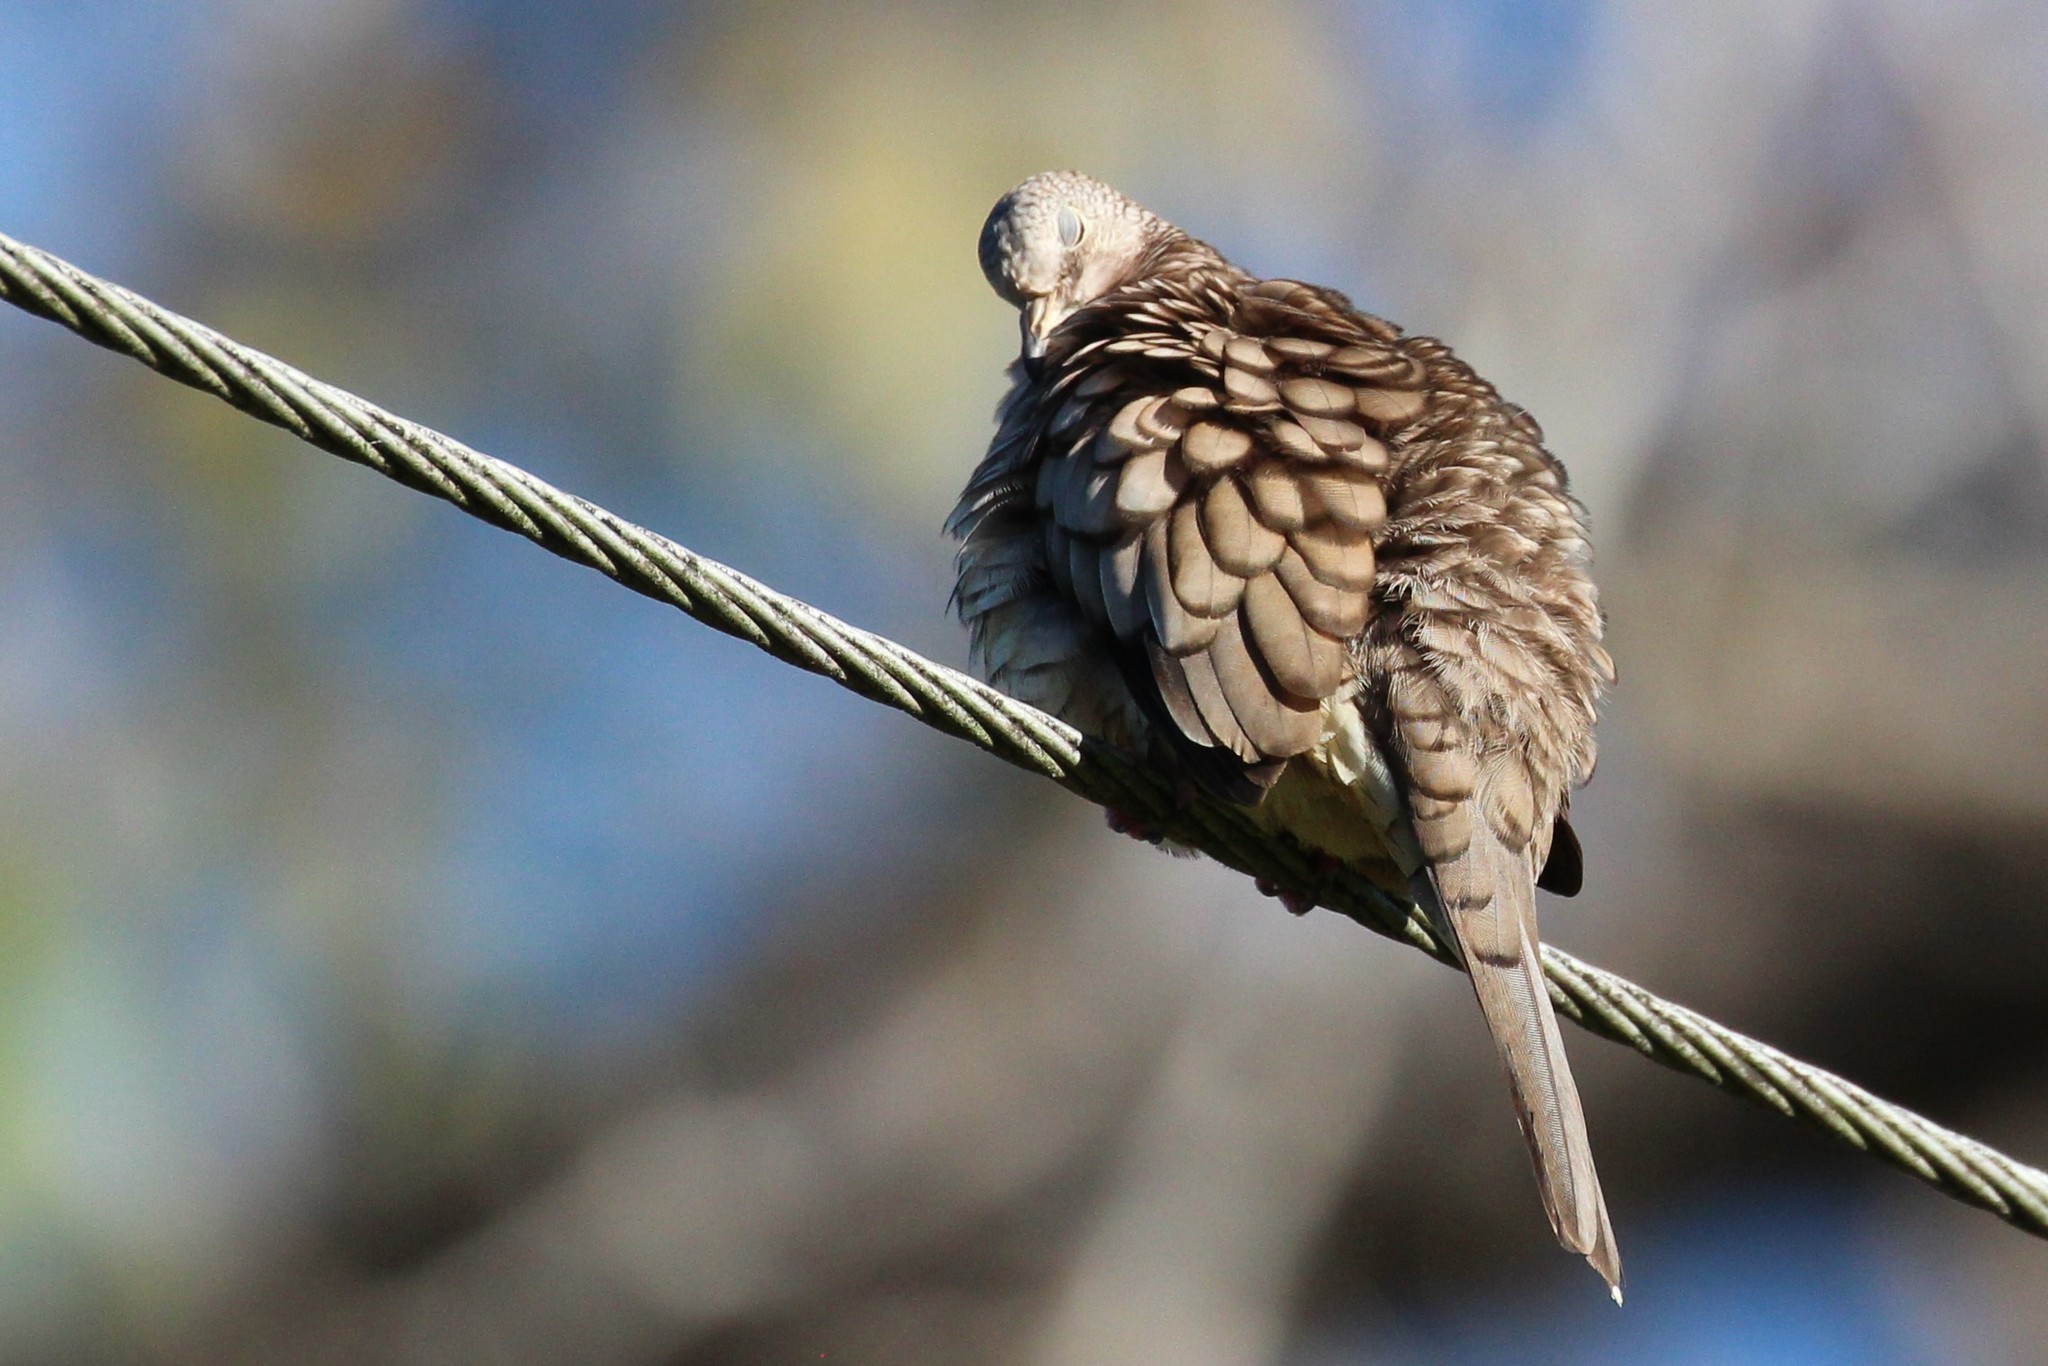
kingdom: Animalia
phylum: Chordata
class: Aves
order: Columbiformes
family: Columbidae
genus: Columbina
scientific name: Columbina inca
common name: Inca dove
